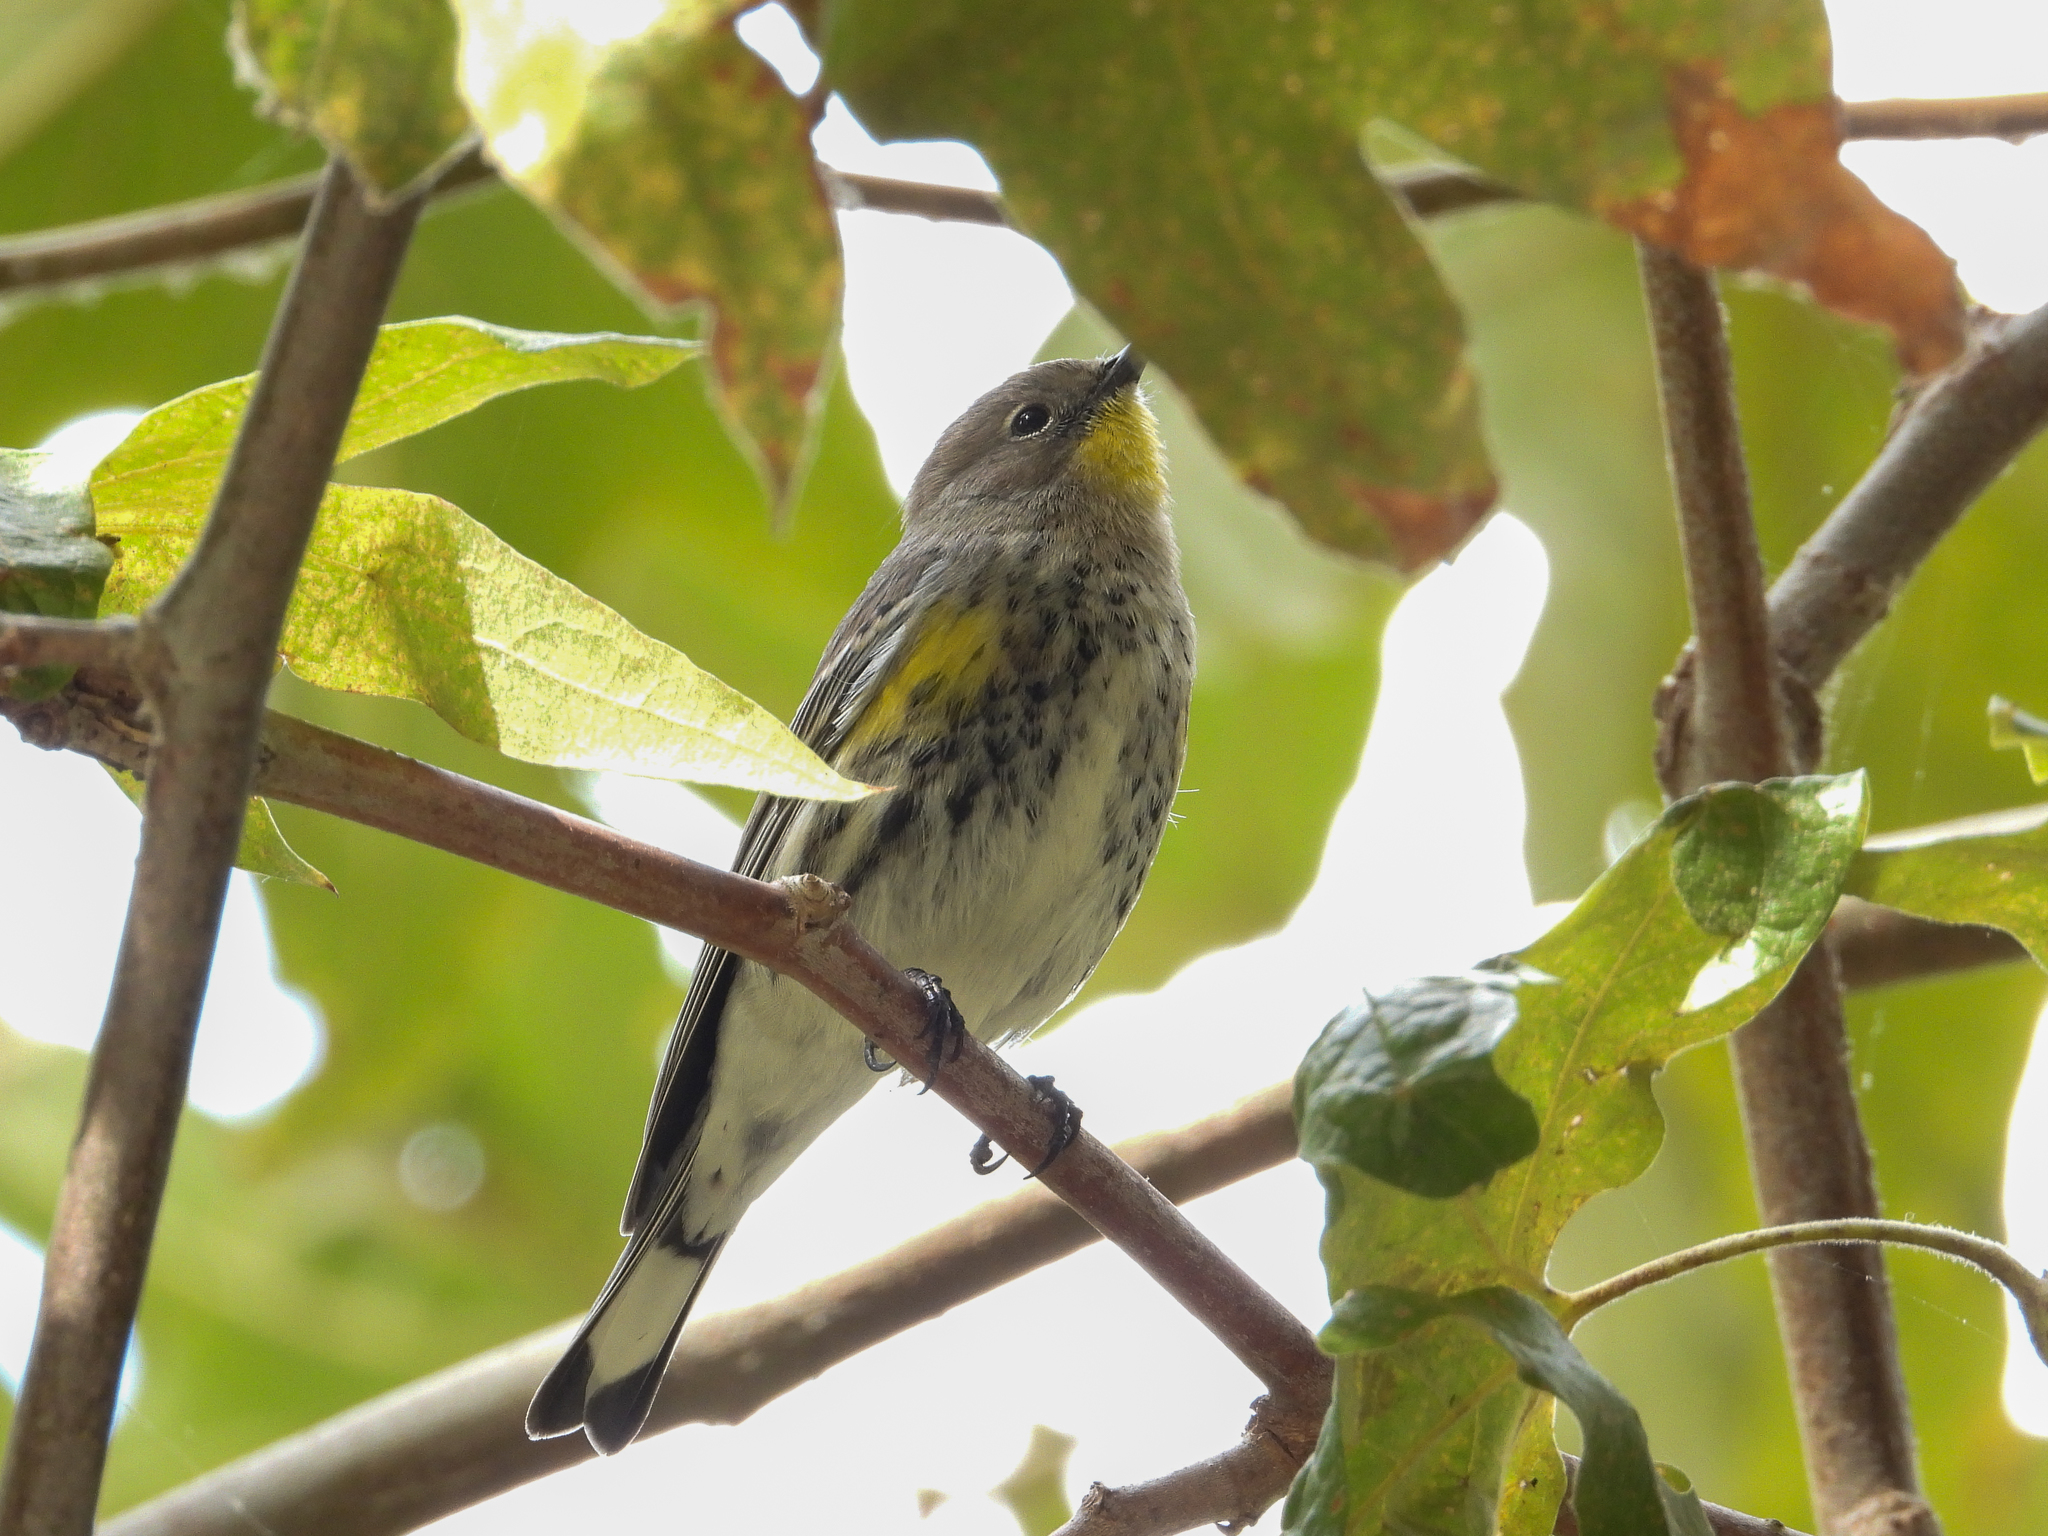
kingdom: Animalia
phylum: Chordata
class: Aves
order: Passeriformes
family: Parulidae
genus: Setophaga
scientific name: Setophaga coronata
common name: Myrtle warbler
